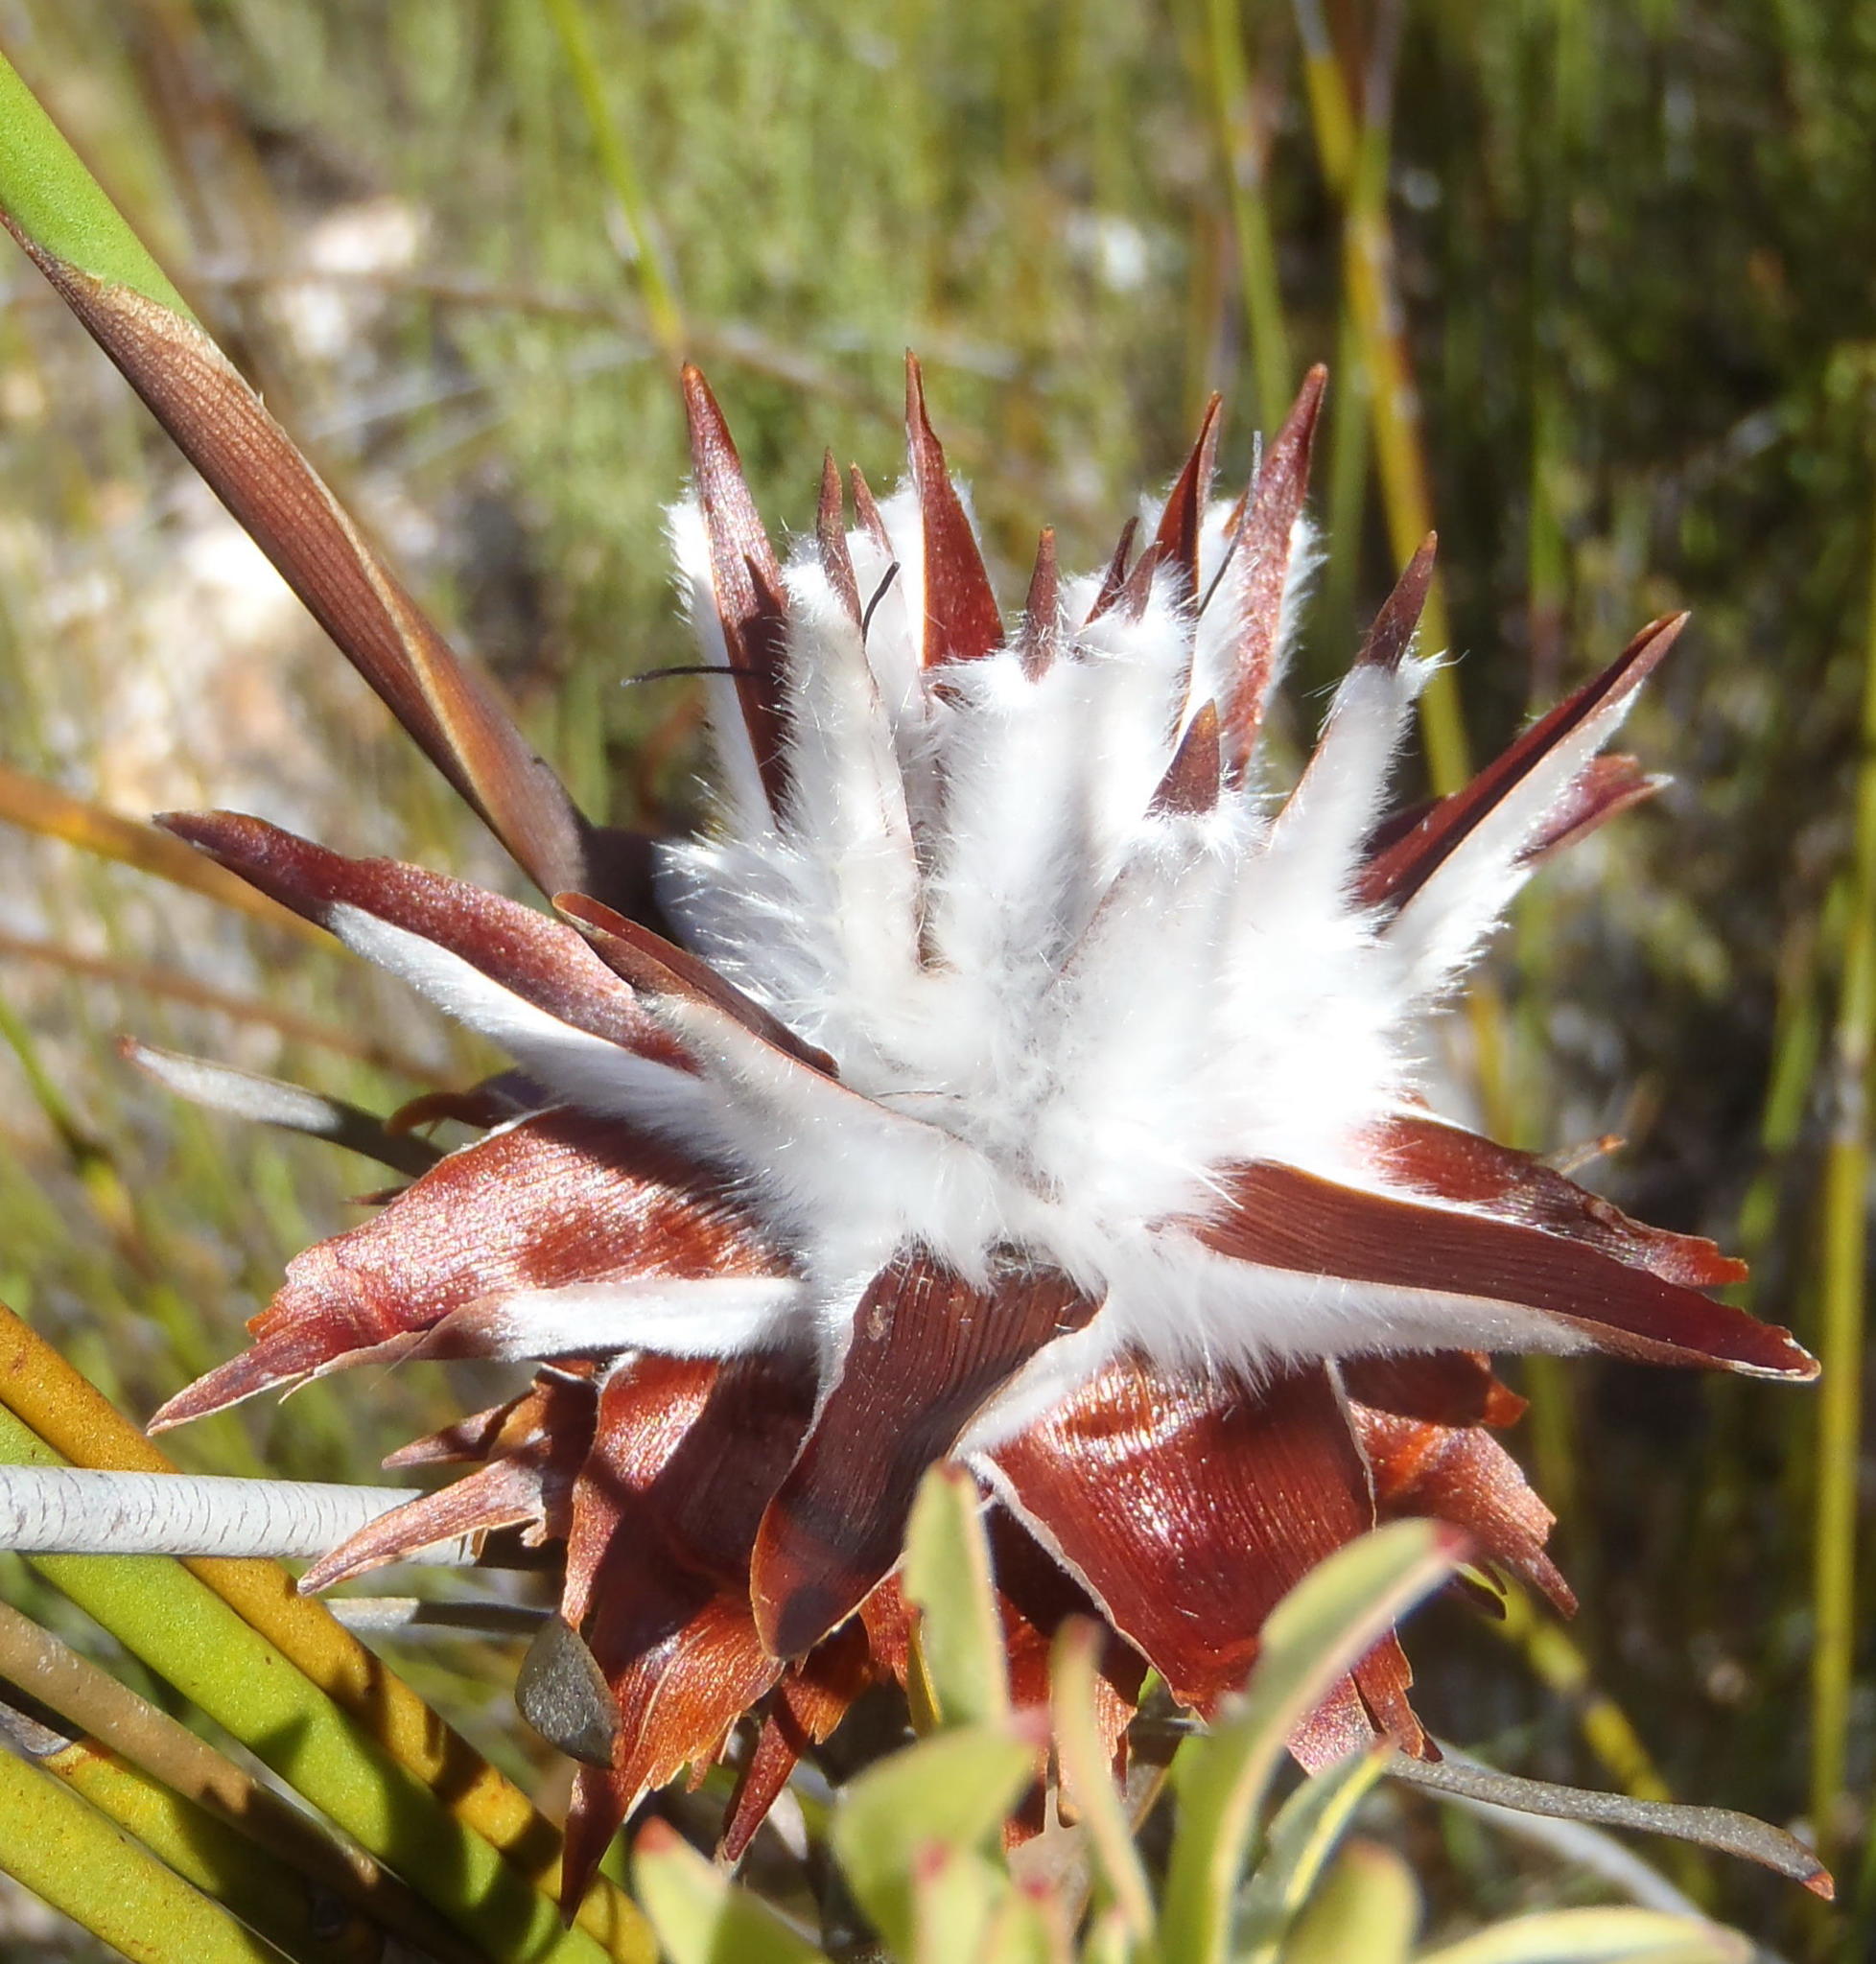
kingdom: Plantae
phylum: Tracheophyta
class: Magnoliopsida
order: Proteales
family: Proteaceae
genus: Leucadendron
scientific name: Leucadendron rubrum
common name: Spinning top
